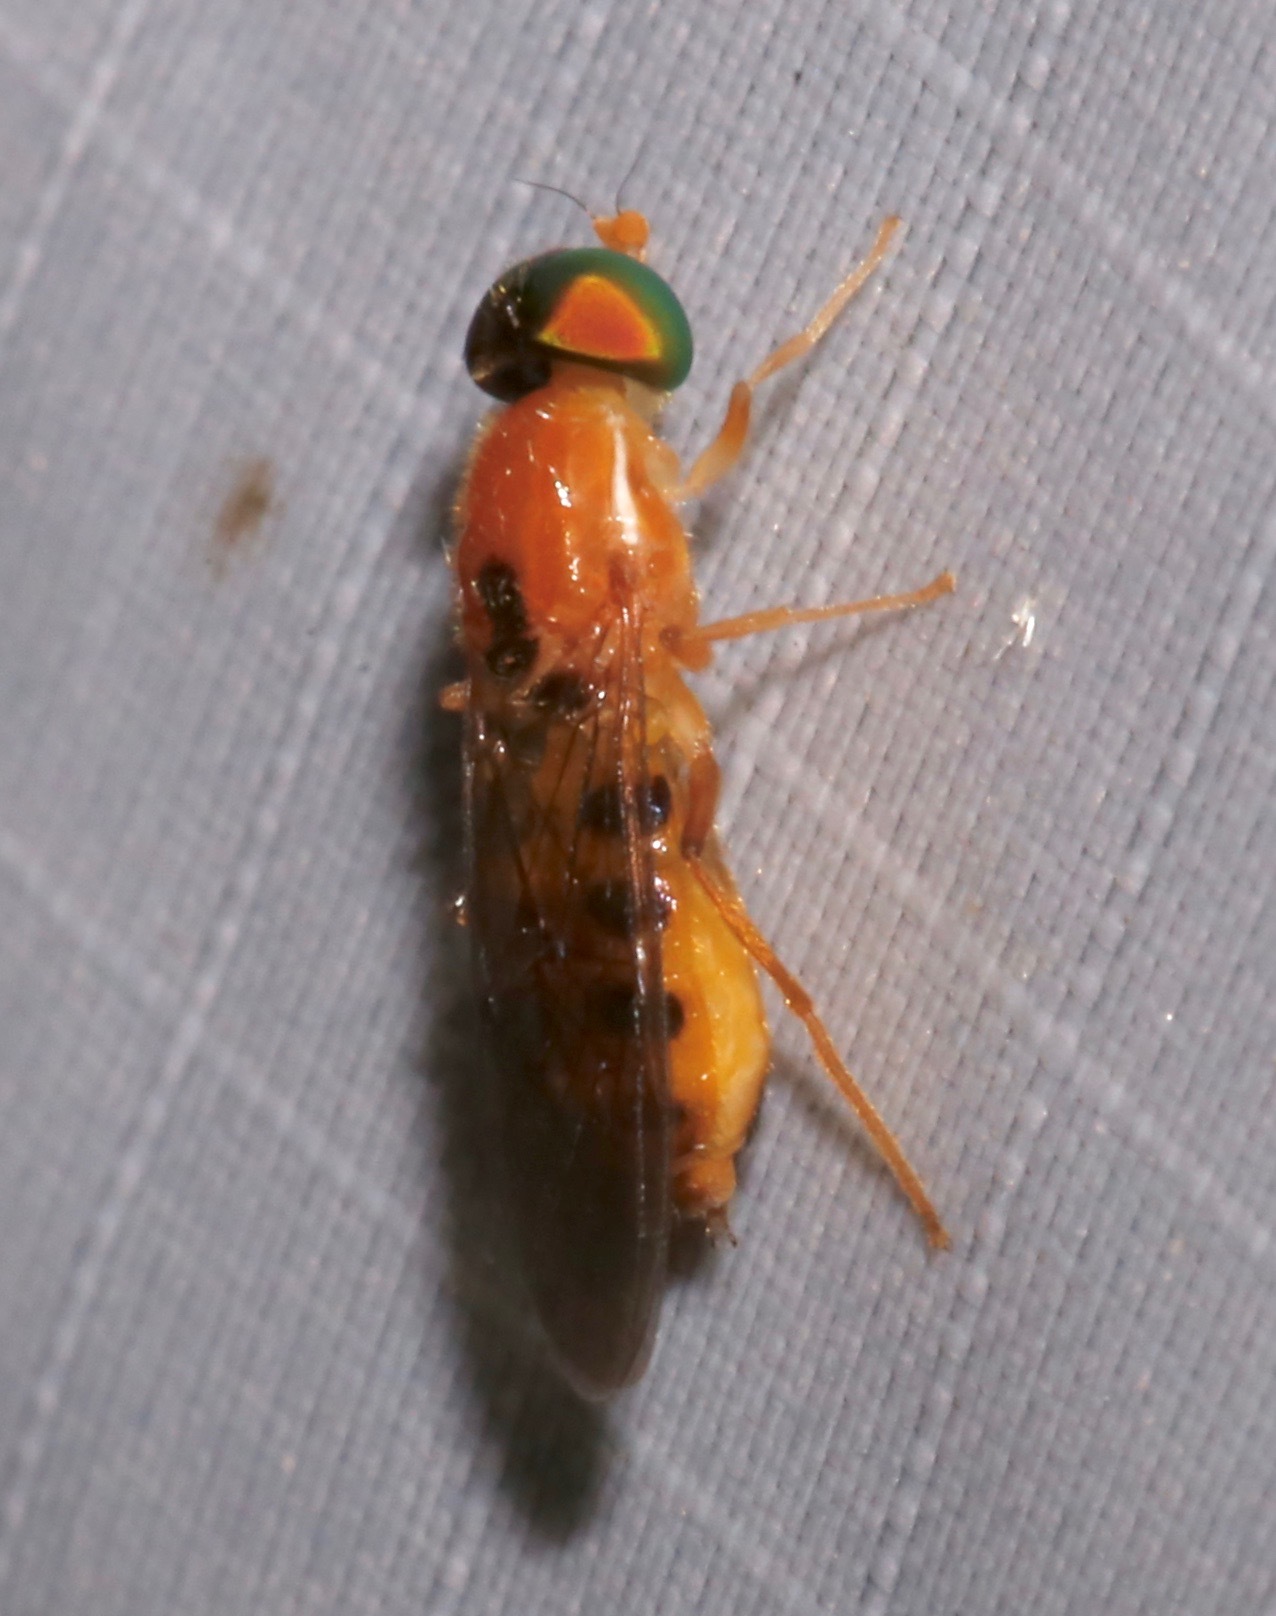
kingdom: Animalia
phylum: Arthropoda
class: Insecta
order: Diptera
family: Stratiomyidae
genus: Sargus
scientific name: Sargus elegans
